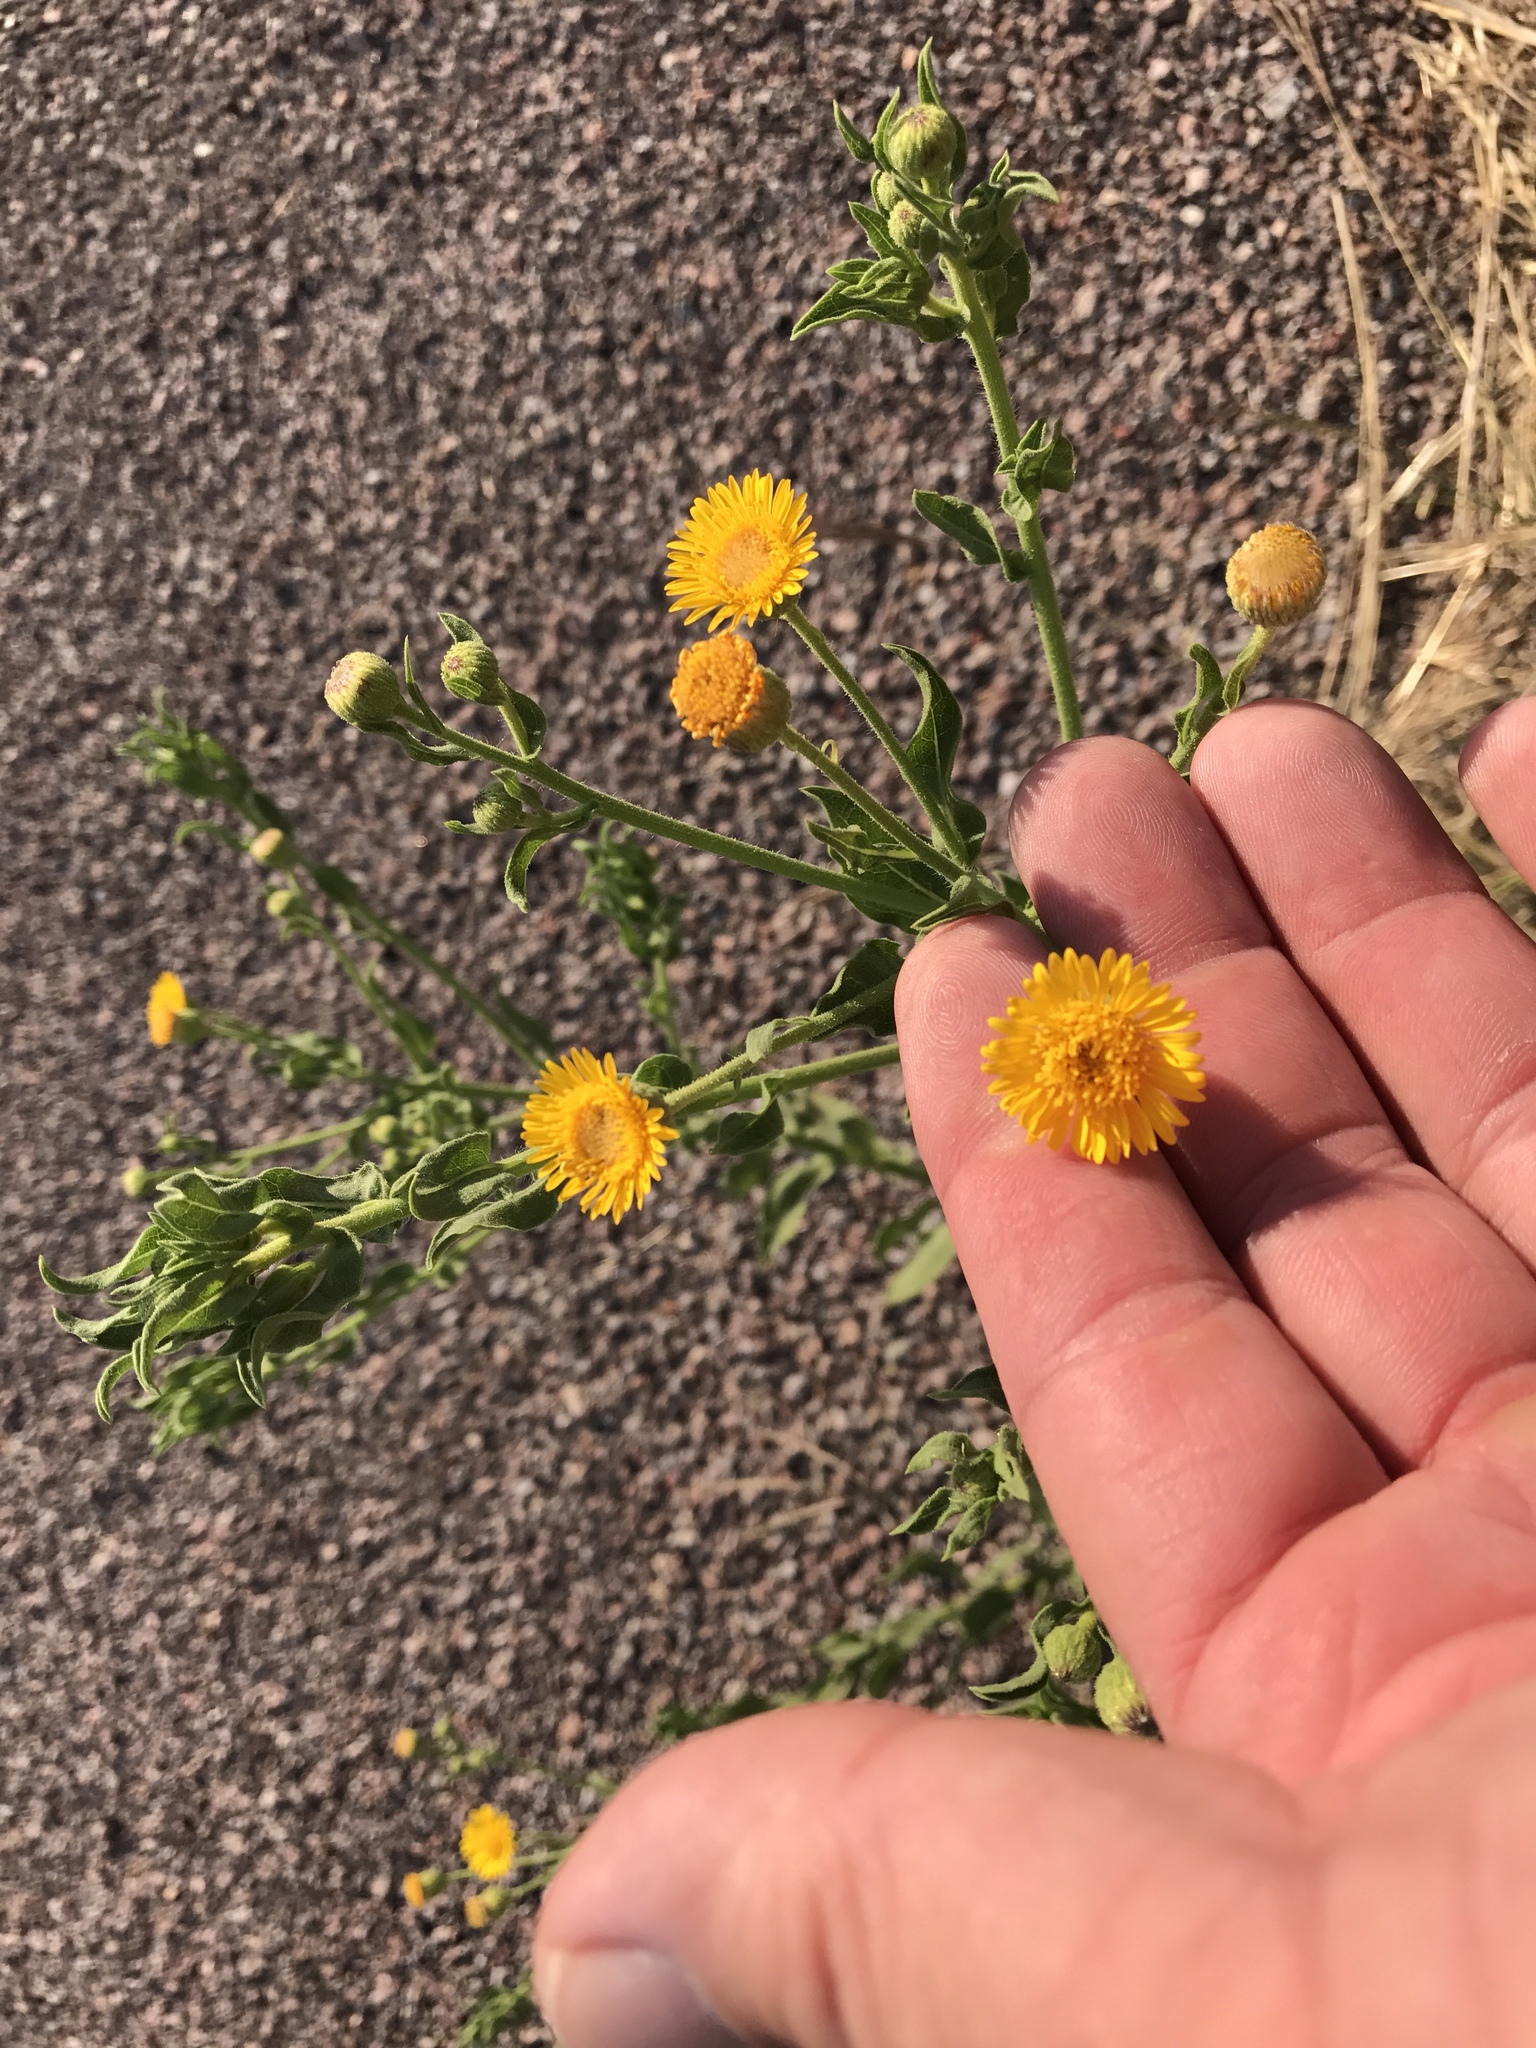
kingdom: Plantae
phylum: Tracheophyta
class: Magnoliopsida
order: Asterales
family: Asteraceae
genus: Heterotheca
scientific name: Heterotheca subaxillaris
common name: Camphorweed
